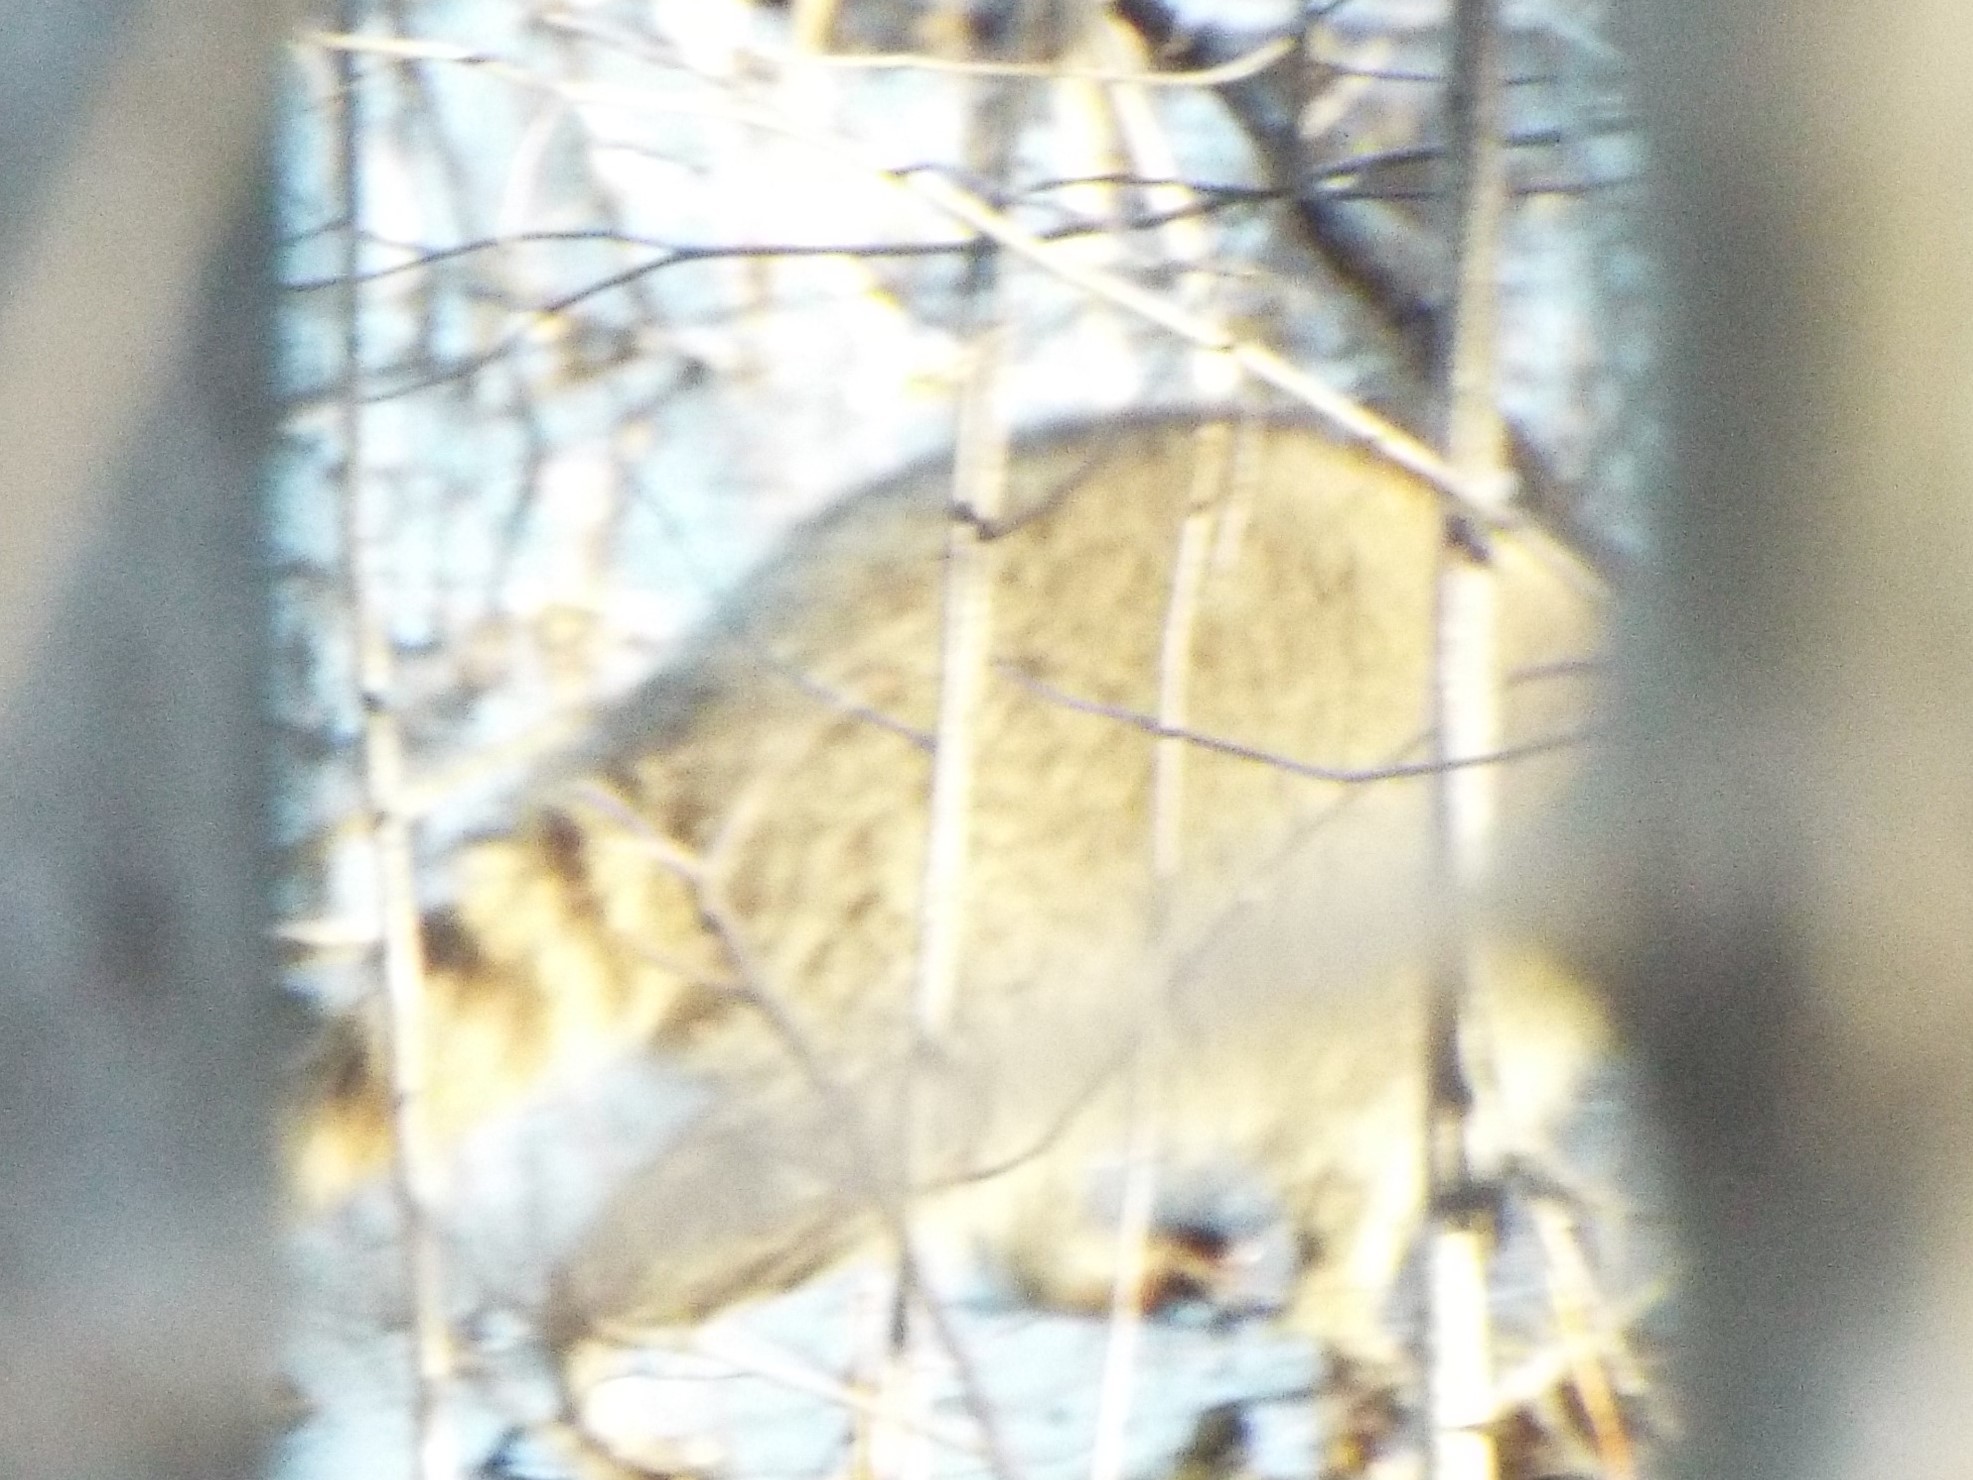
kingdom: Animalia
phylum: Chordata
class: Mammalia
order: Carnivora
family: Procyonidae
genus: Procyon
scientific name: Procyon lotor
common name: Raccoon
